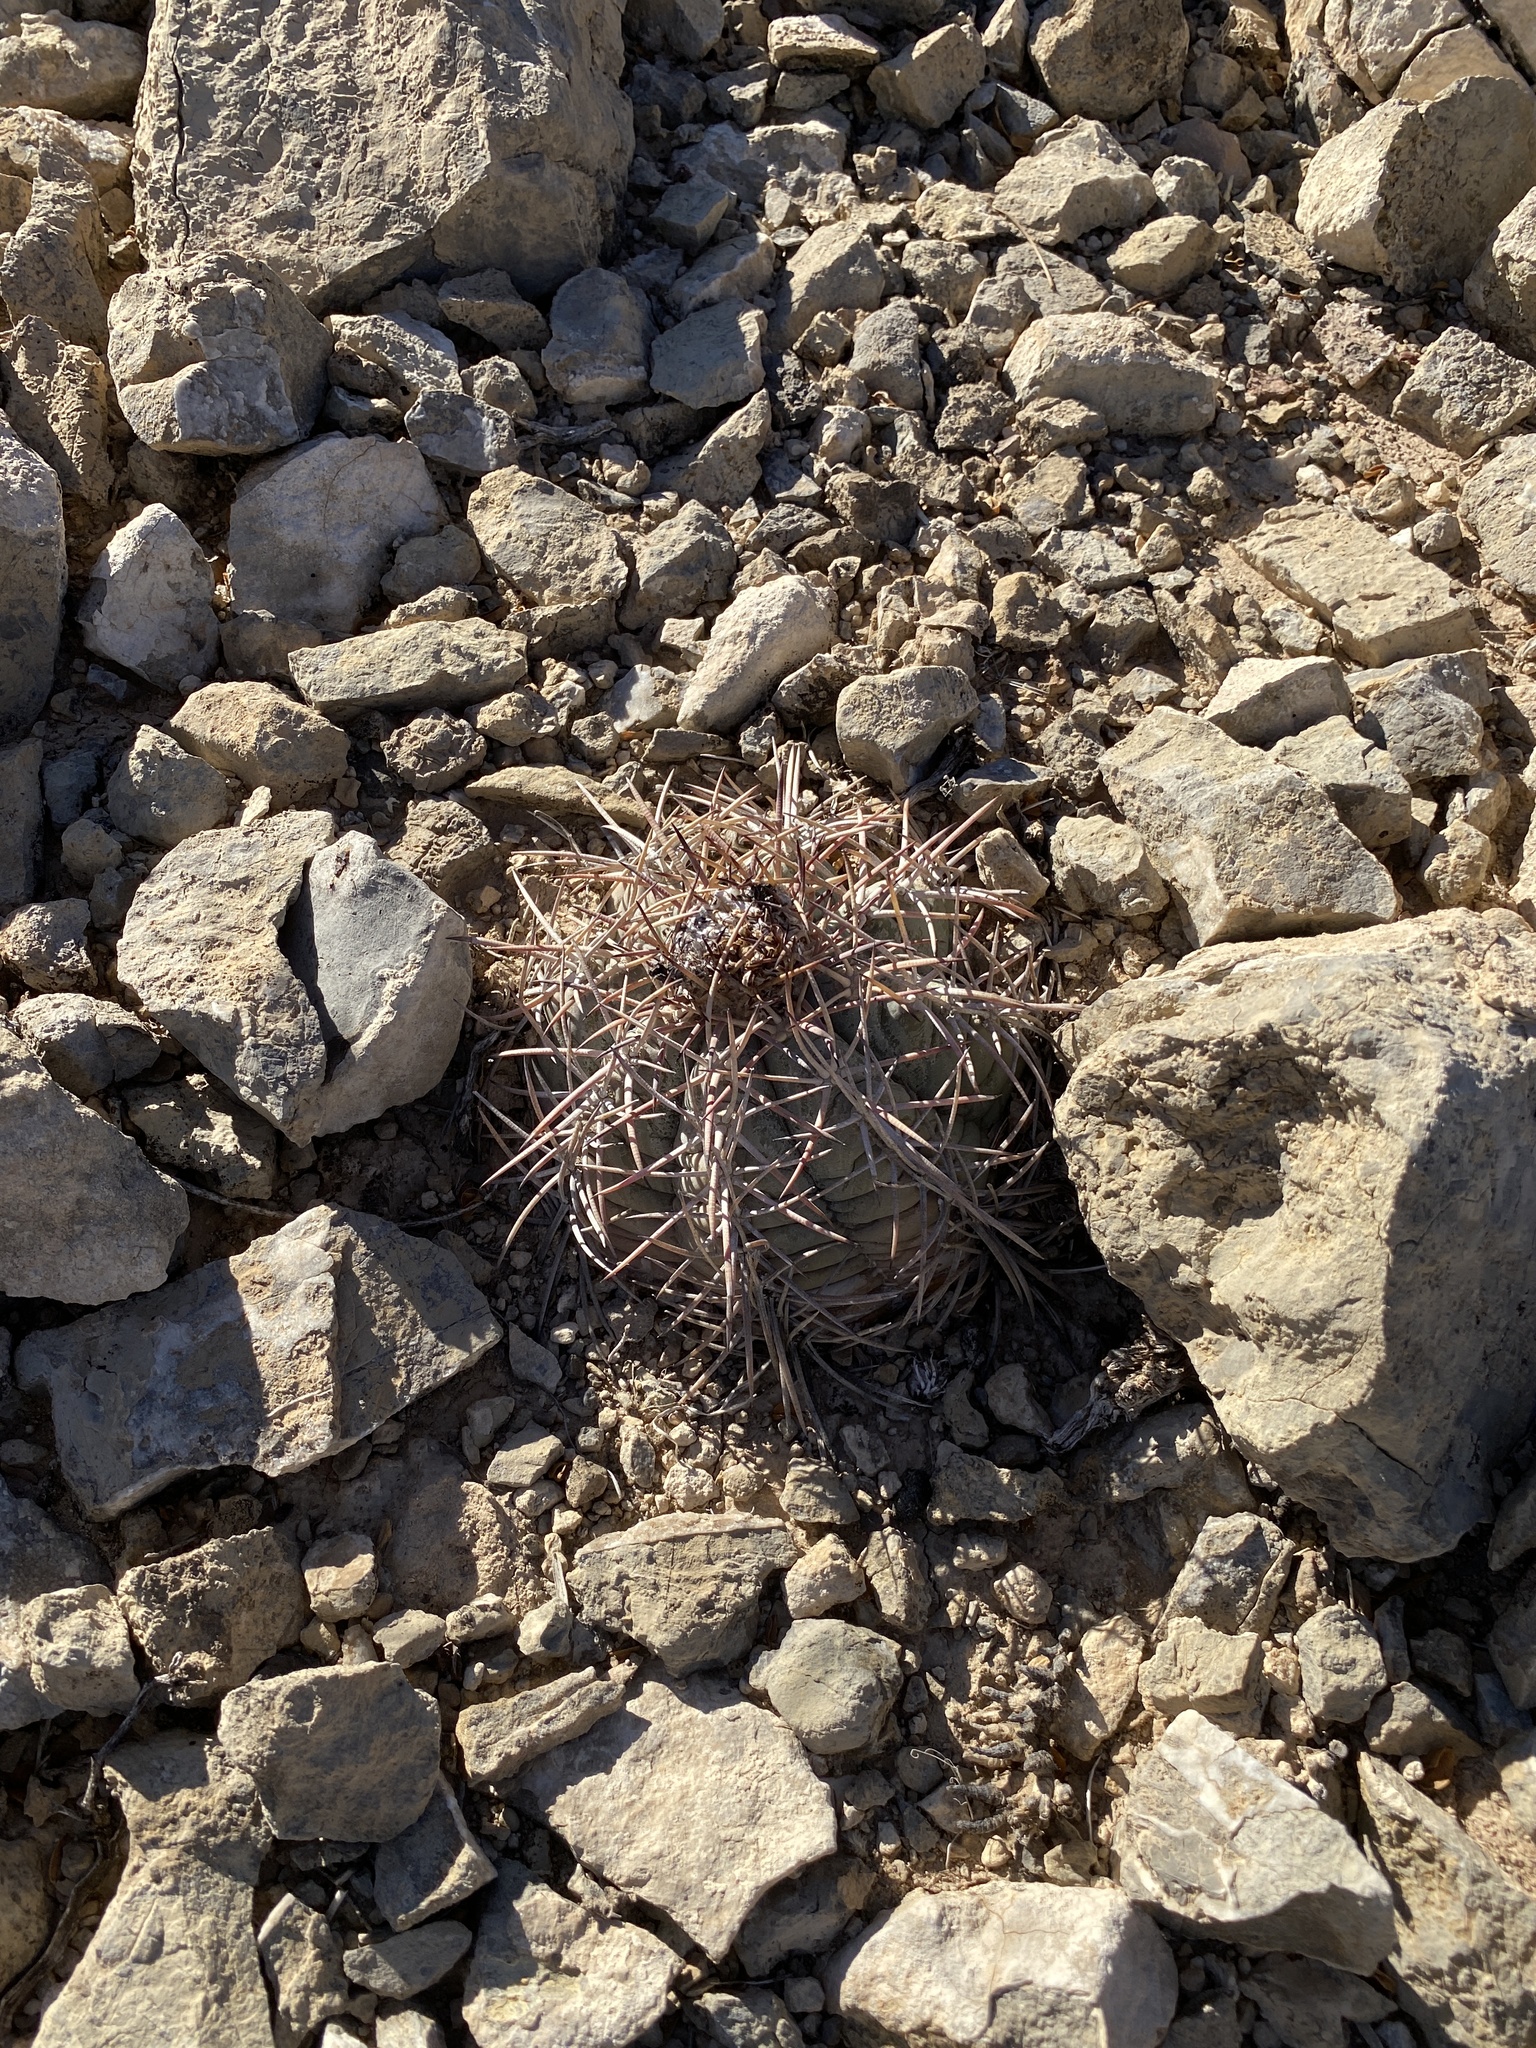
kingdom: Plantae
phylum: Tracheophyta
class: Magnoliopsida
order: Caryophyllales
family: Cactaceae
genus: Echinocactus
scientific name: Echinocactus horizonthalonius
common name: Devilshead
